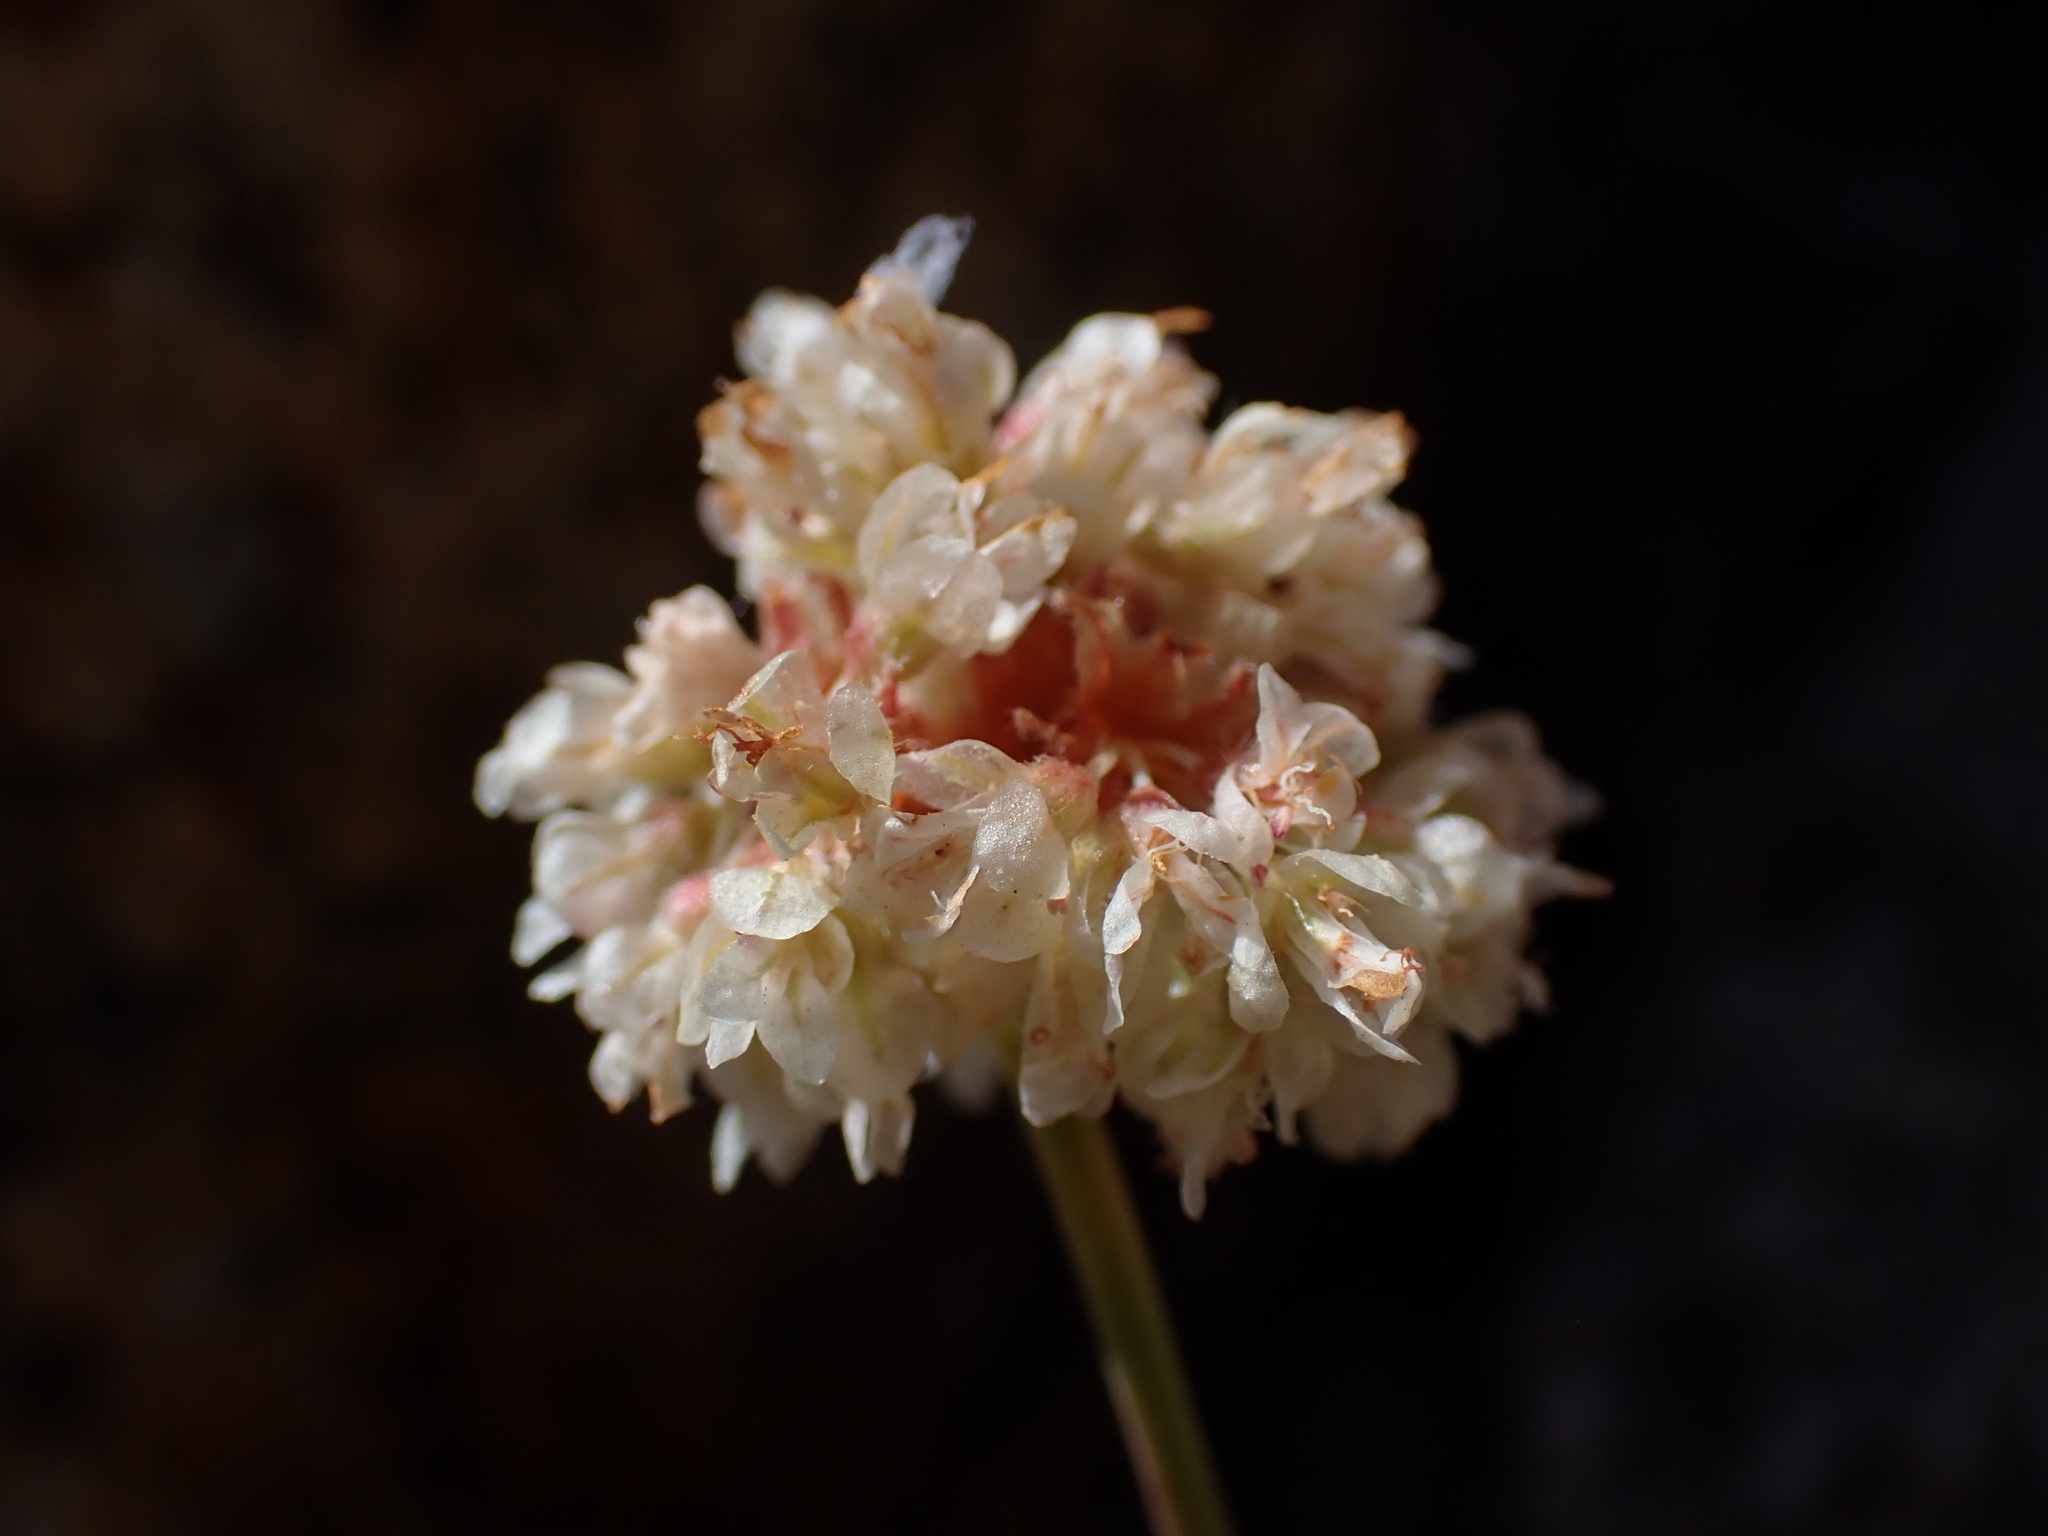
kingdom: Plantae
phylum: Tracheophyta
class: Magnoliopsida
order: Caryophyllales
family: Polygonaceae
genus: Eriogonum
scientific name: Eriogonum latens
